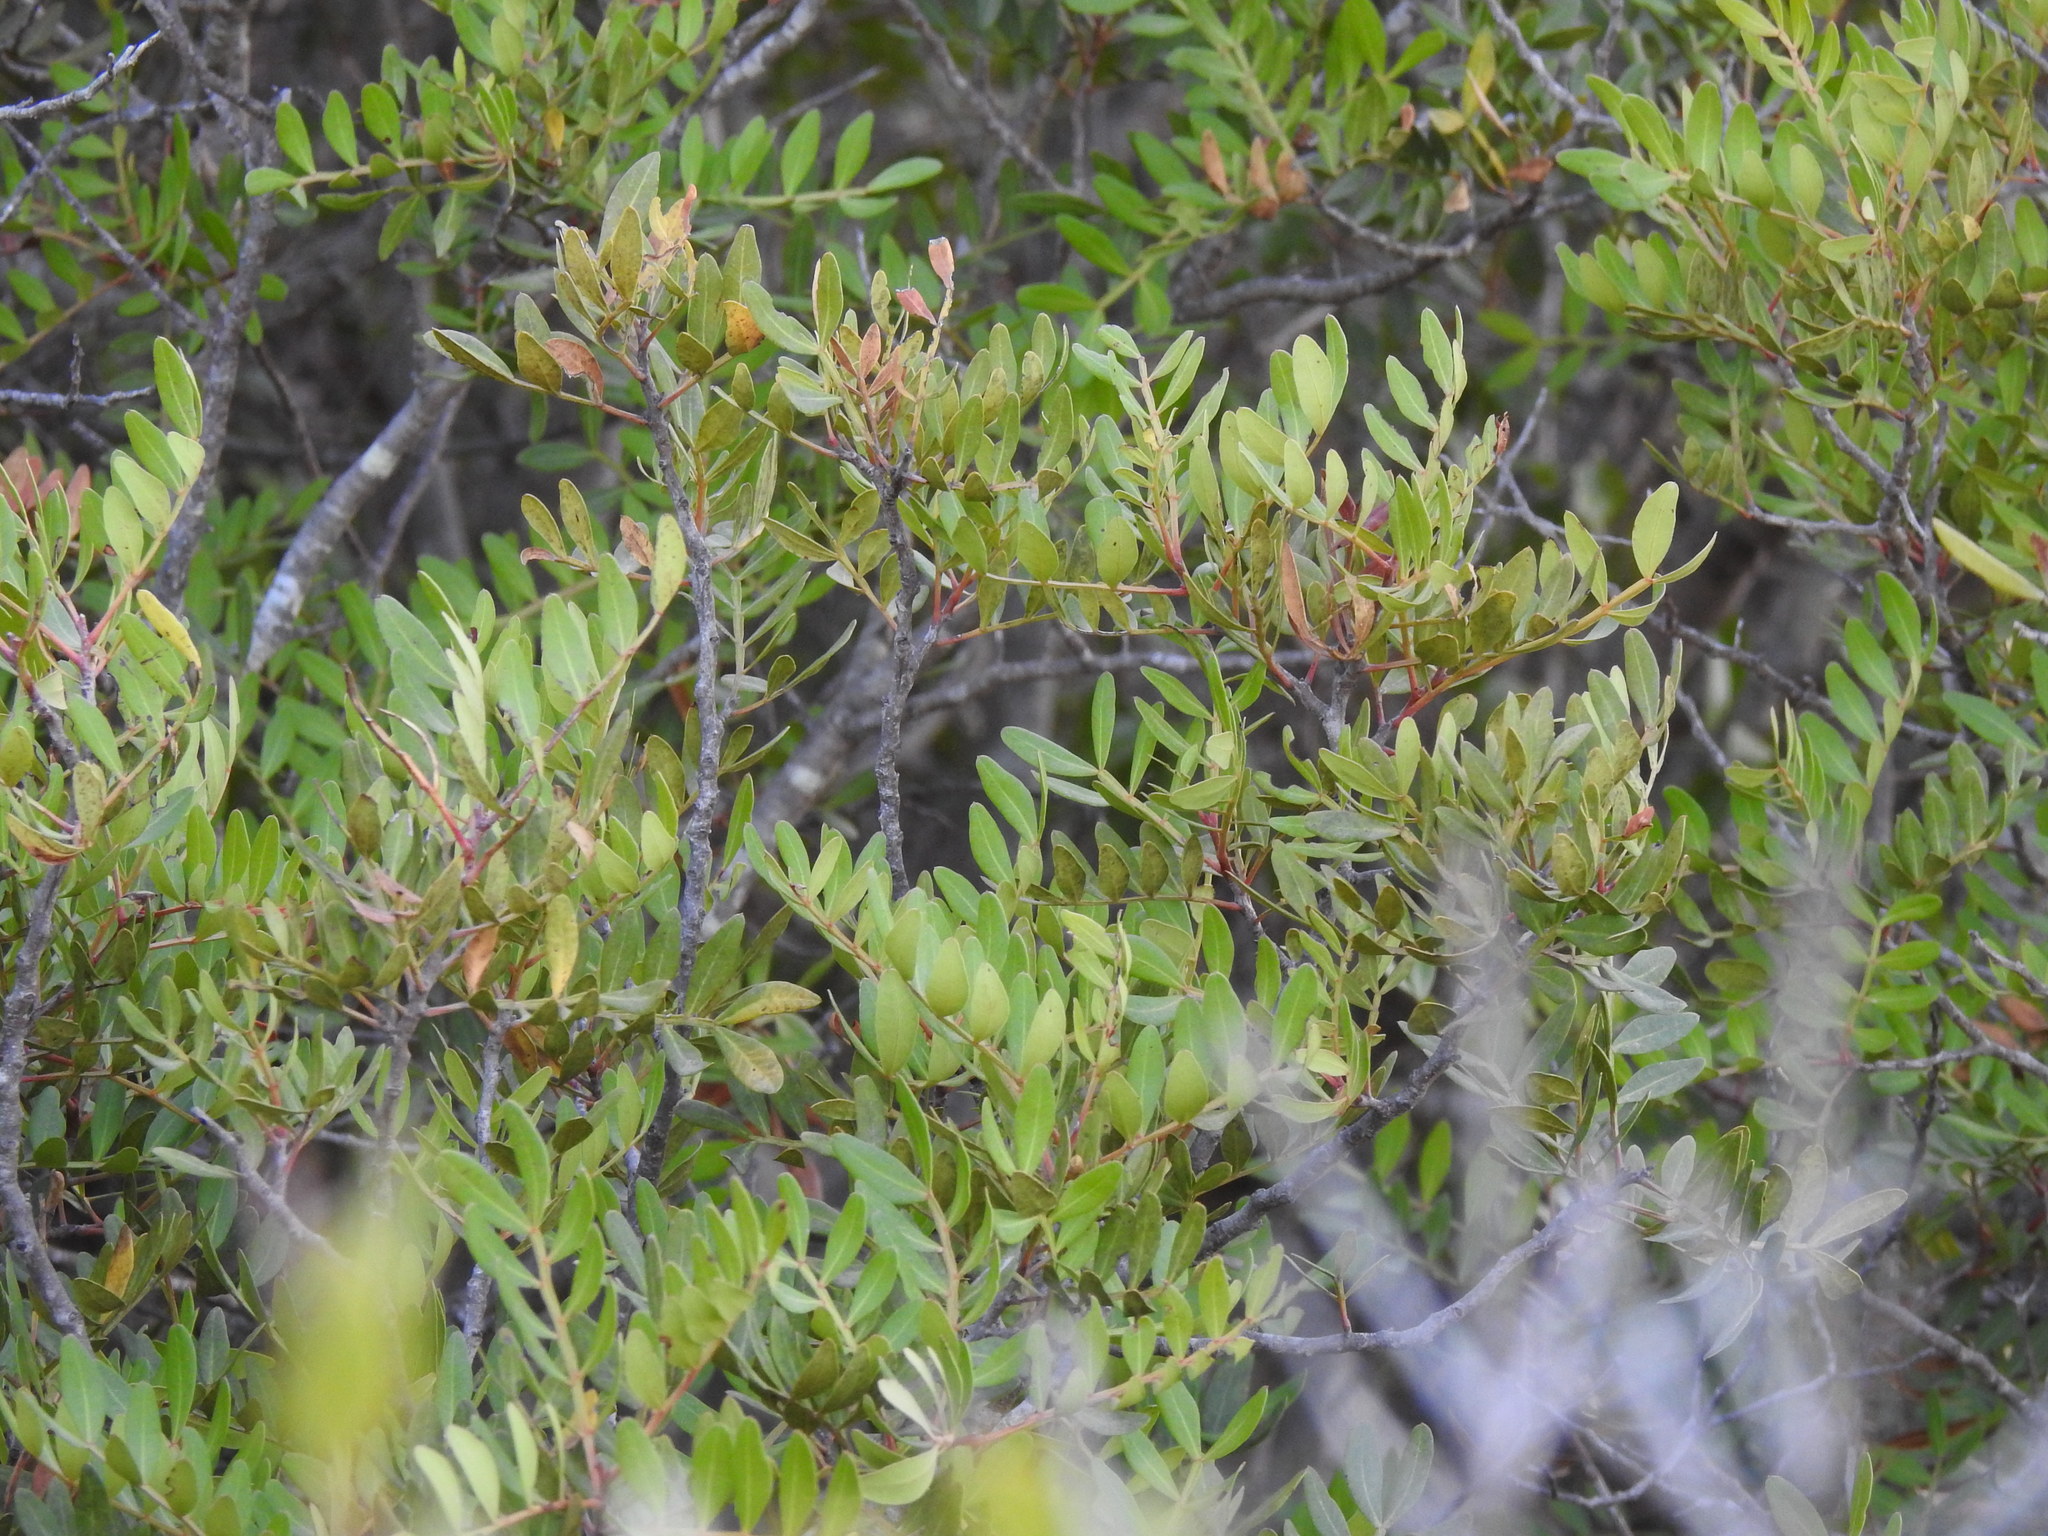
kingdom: Plantae
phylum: Tracheophyta
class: Magnoliopsida
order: Sapindales
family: Anacardiaceae
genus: Pistacia
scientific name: Pistacia lentiscus
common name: Lentisk
